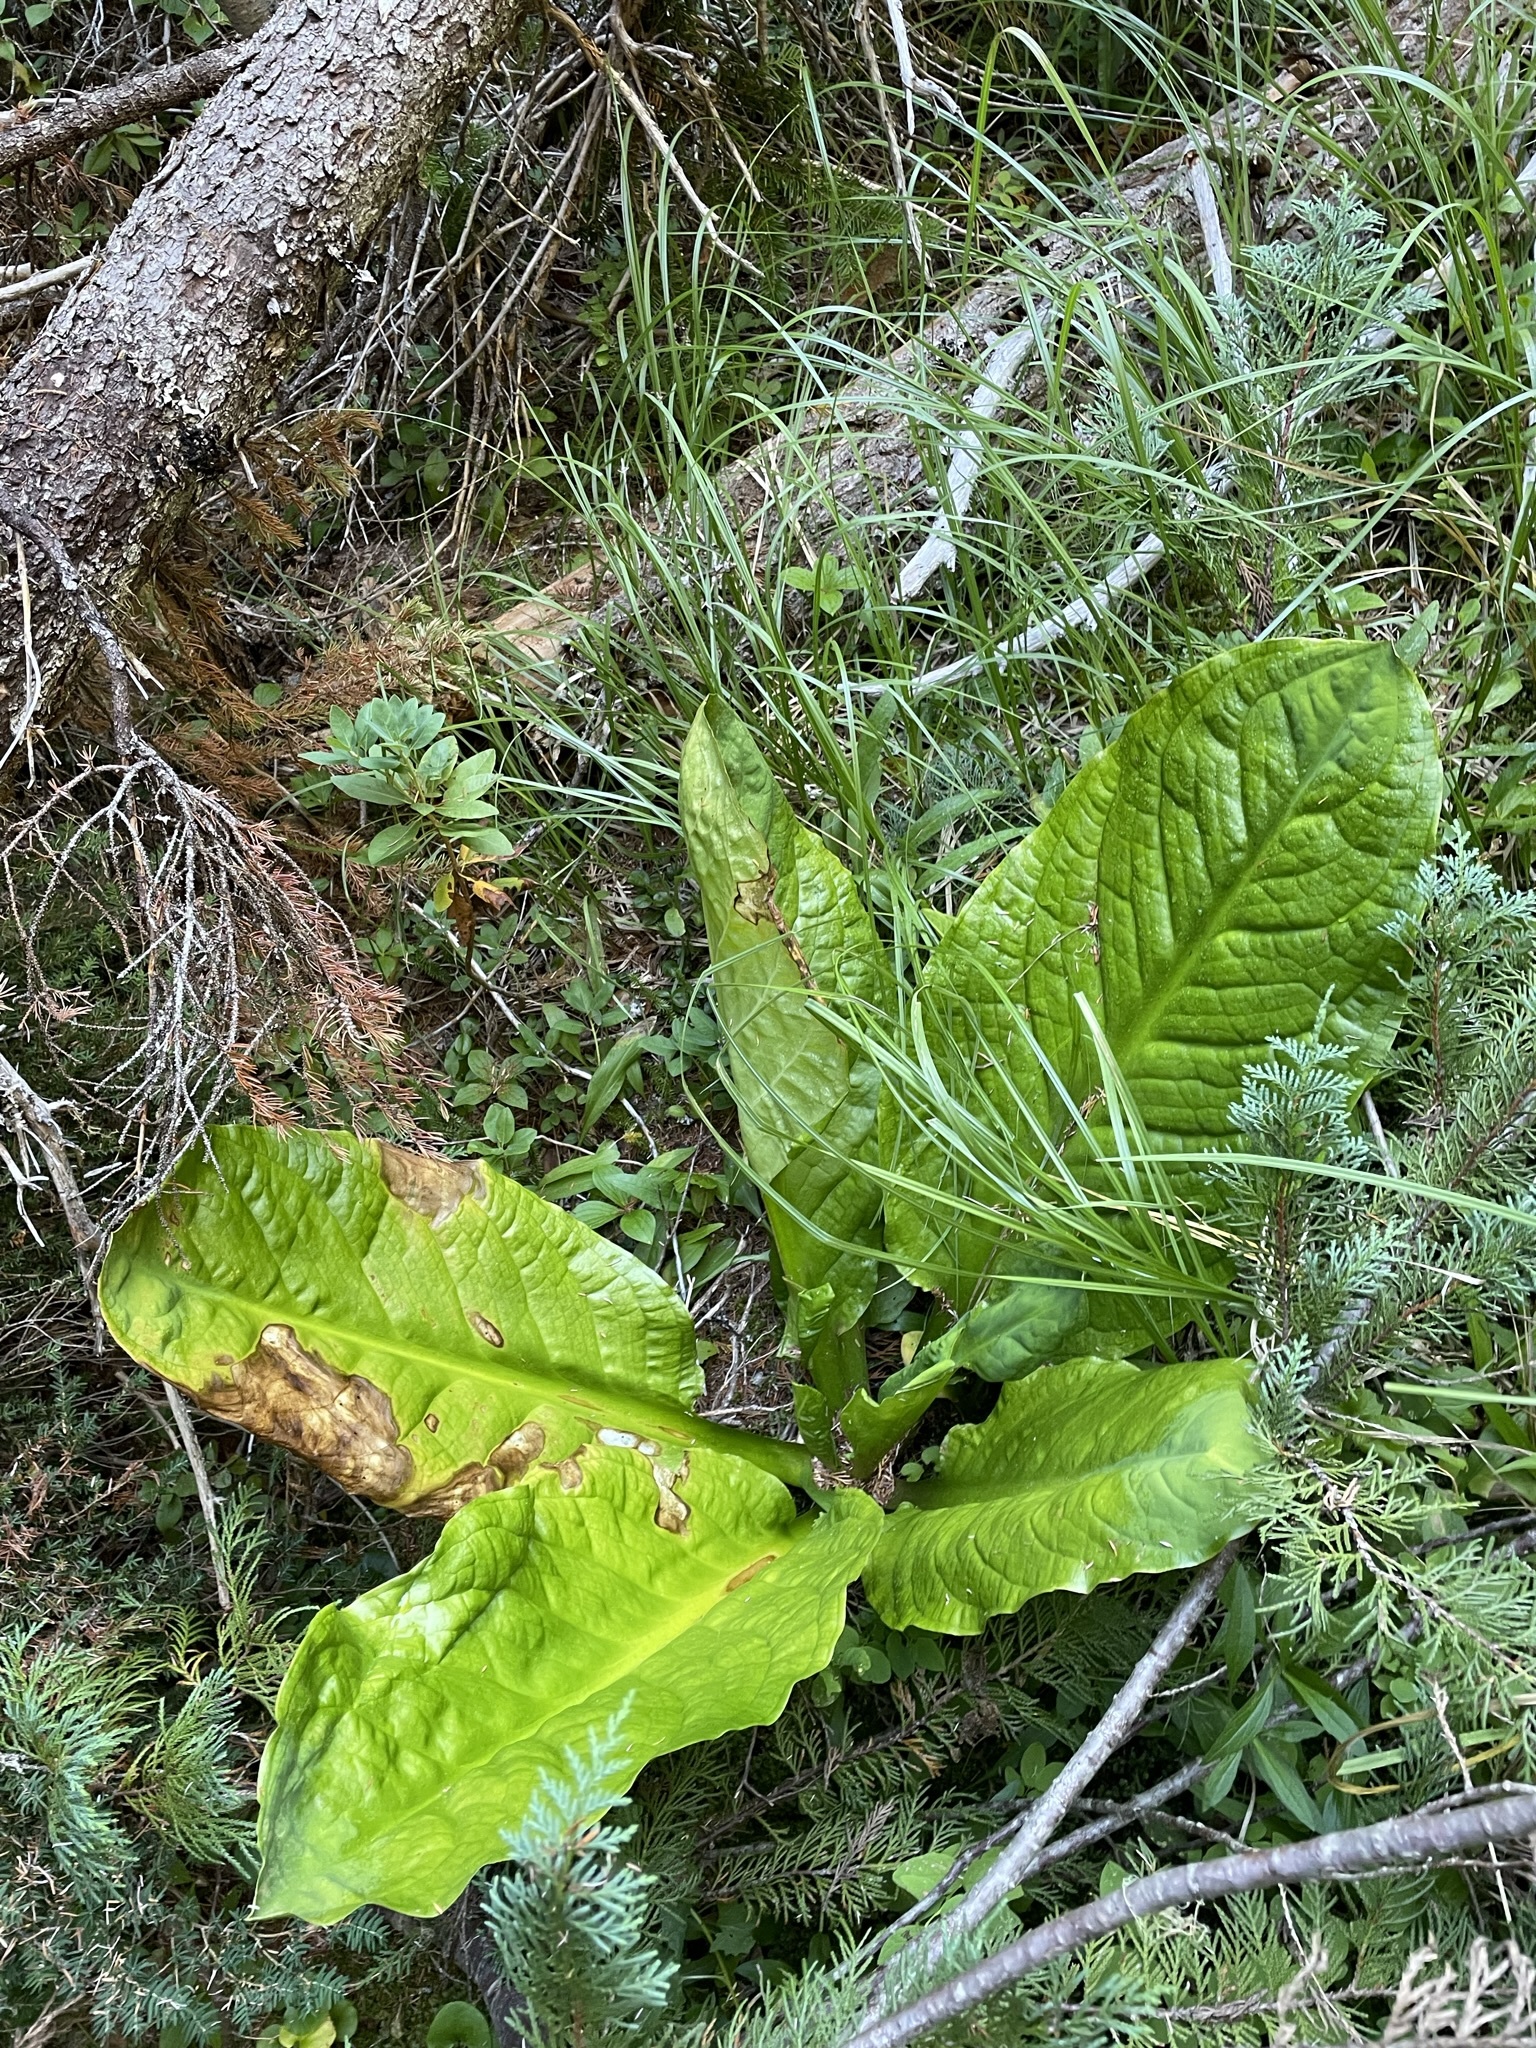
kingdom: Plantae
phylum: Tracheophyta
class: Liliopsida
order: Alismatales
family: Araceae
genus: Lysichiton
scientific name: Lysichiton americanus
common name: American skunk cabbage
